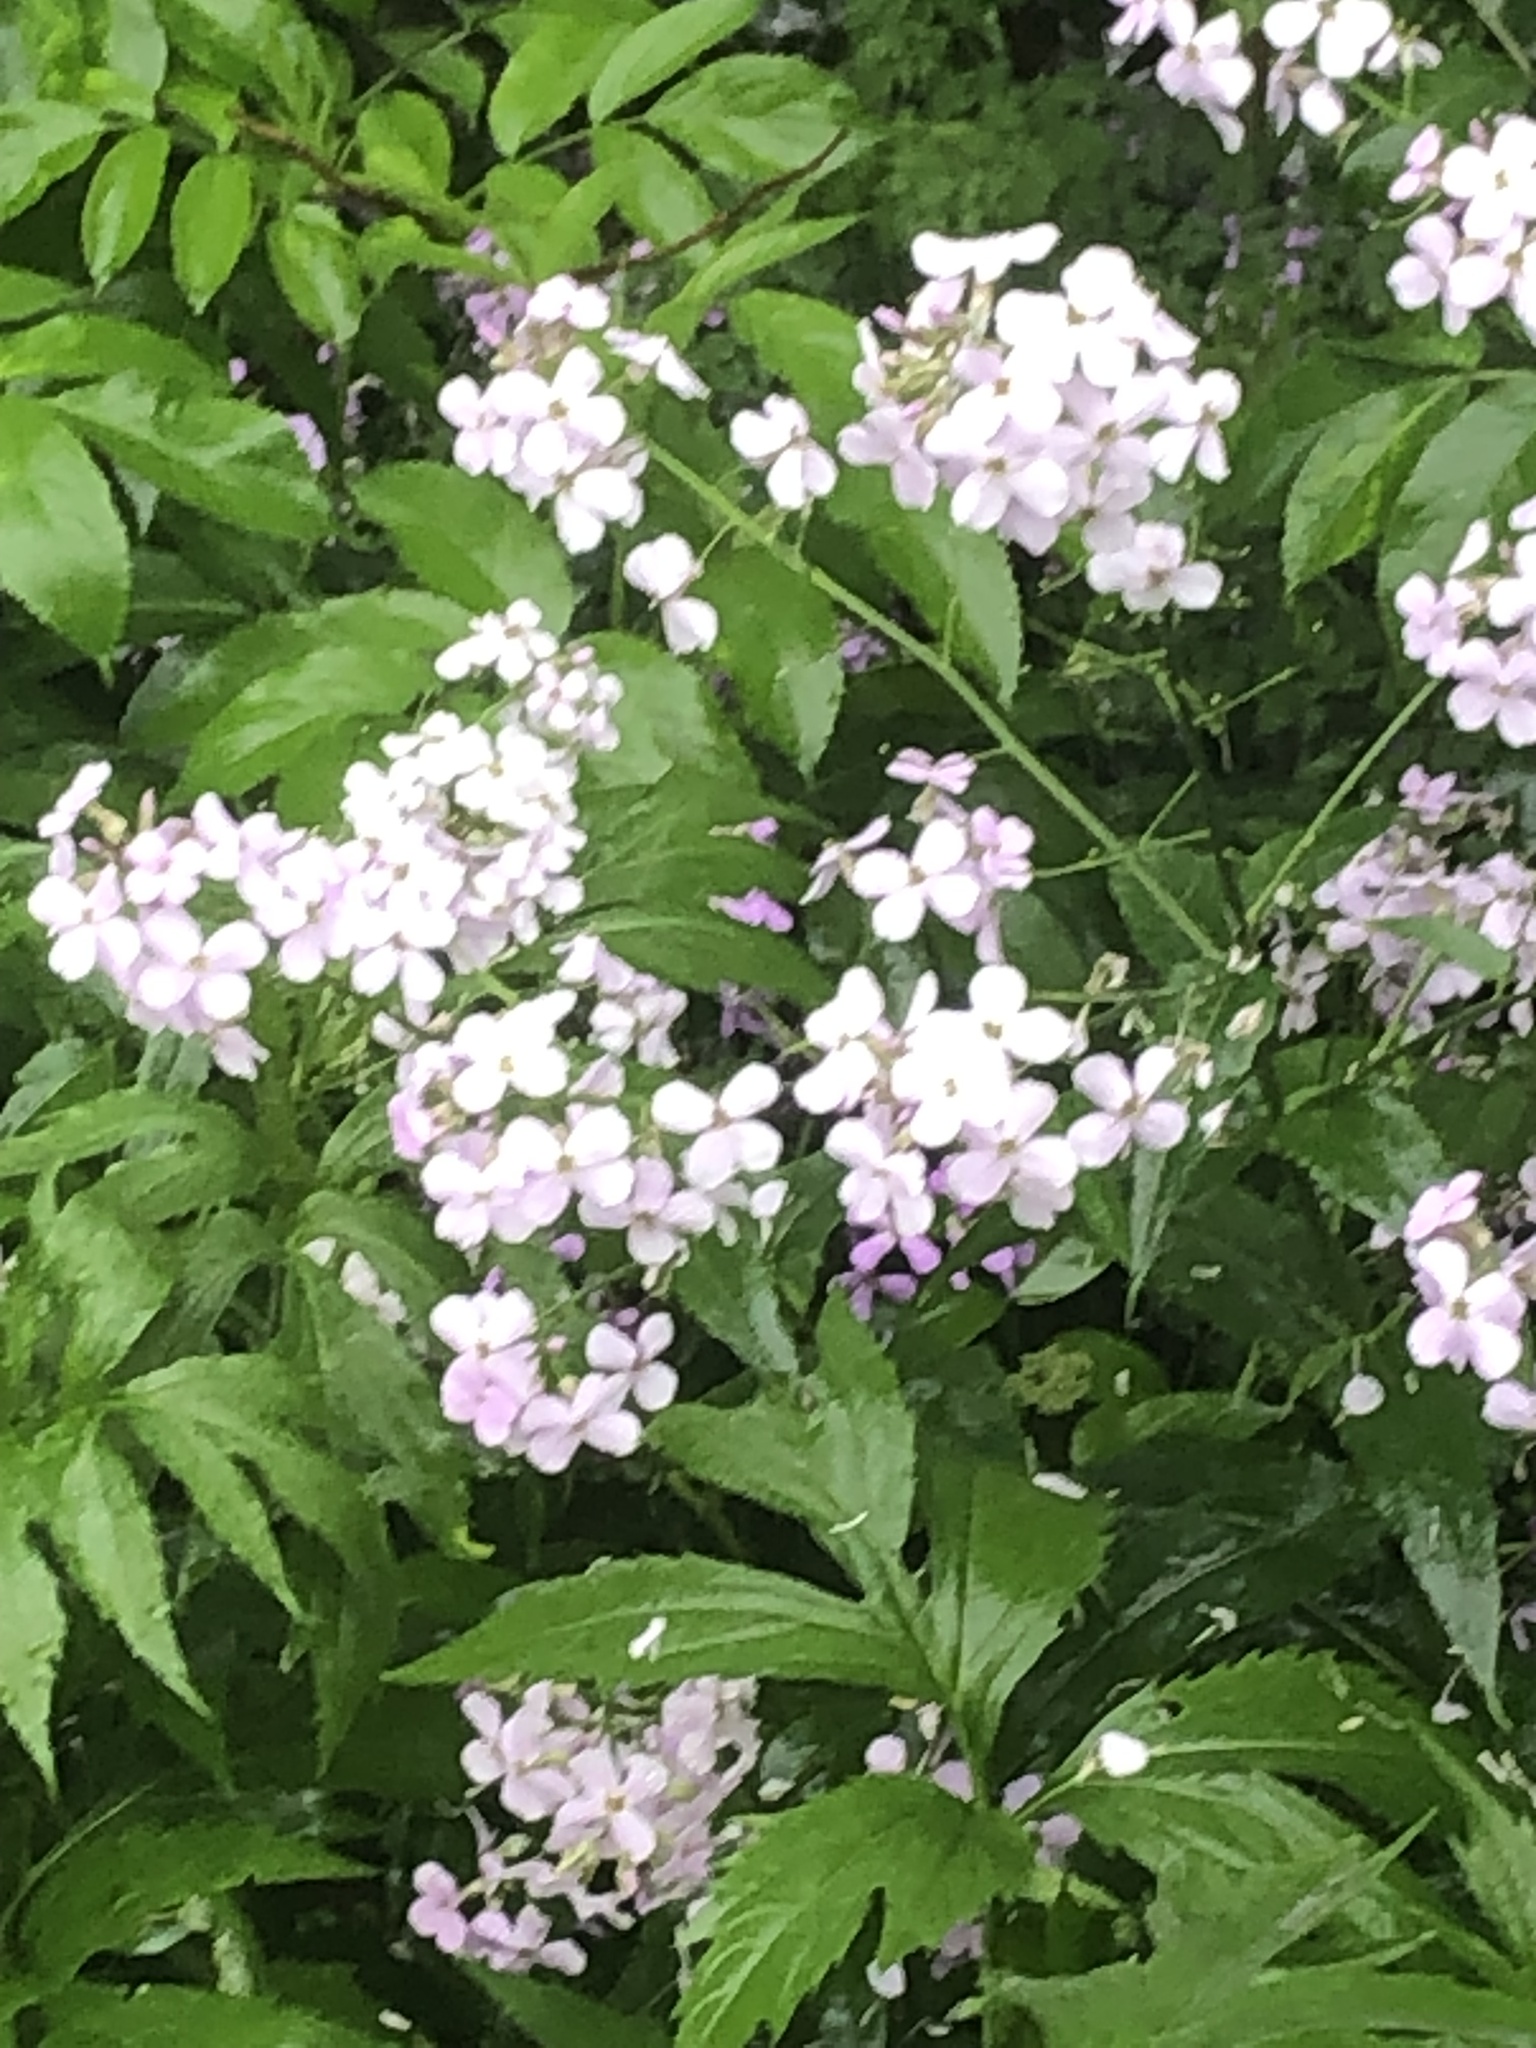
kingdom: Plantae
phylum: Tracheophyta
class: Magnoliopsida
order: Brassicales
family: Brassicaceae
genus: Hesperis
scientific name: Hesperis matronalis
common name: Dame's-violet
